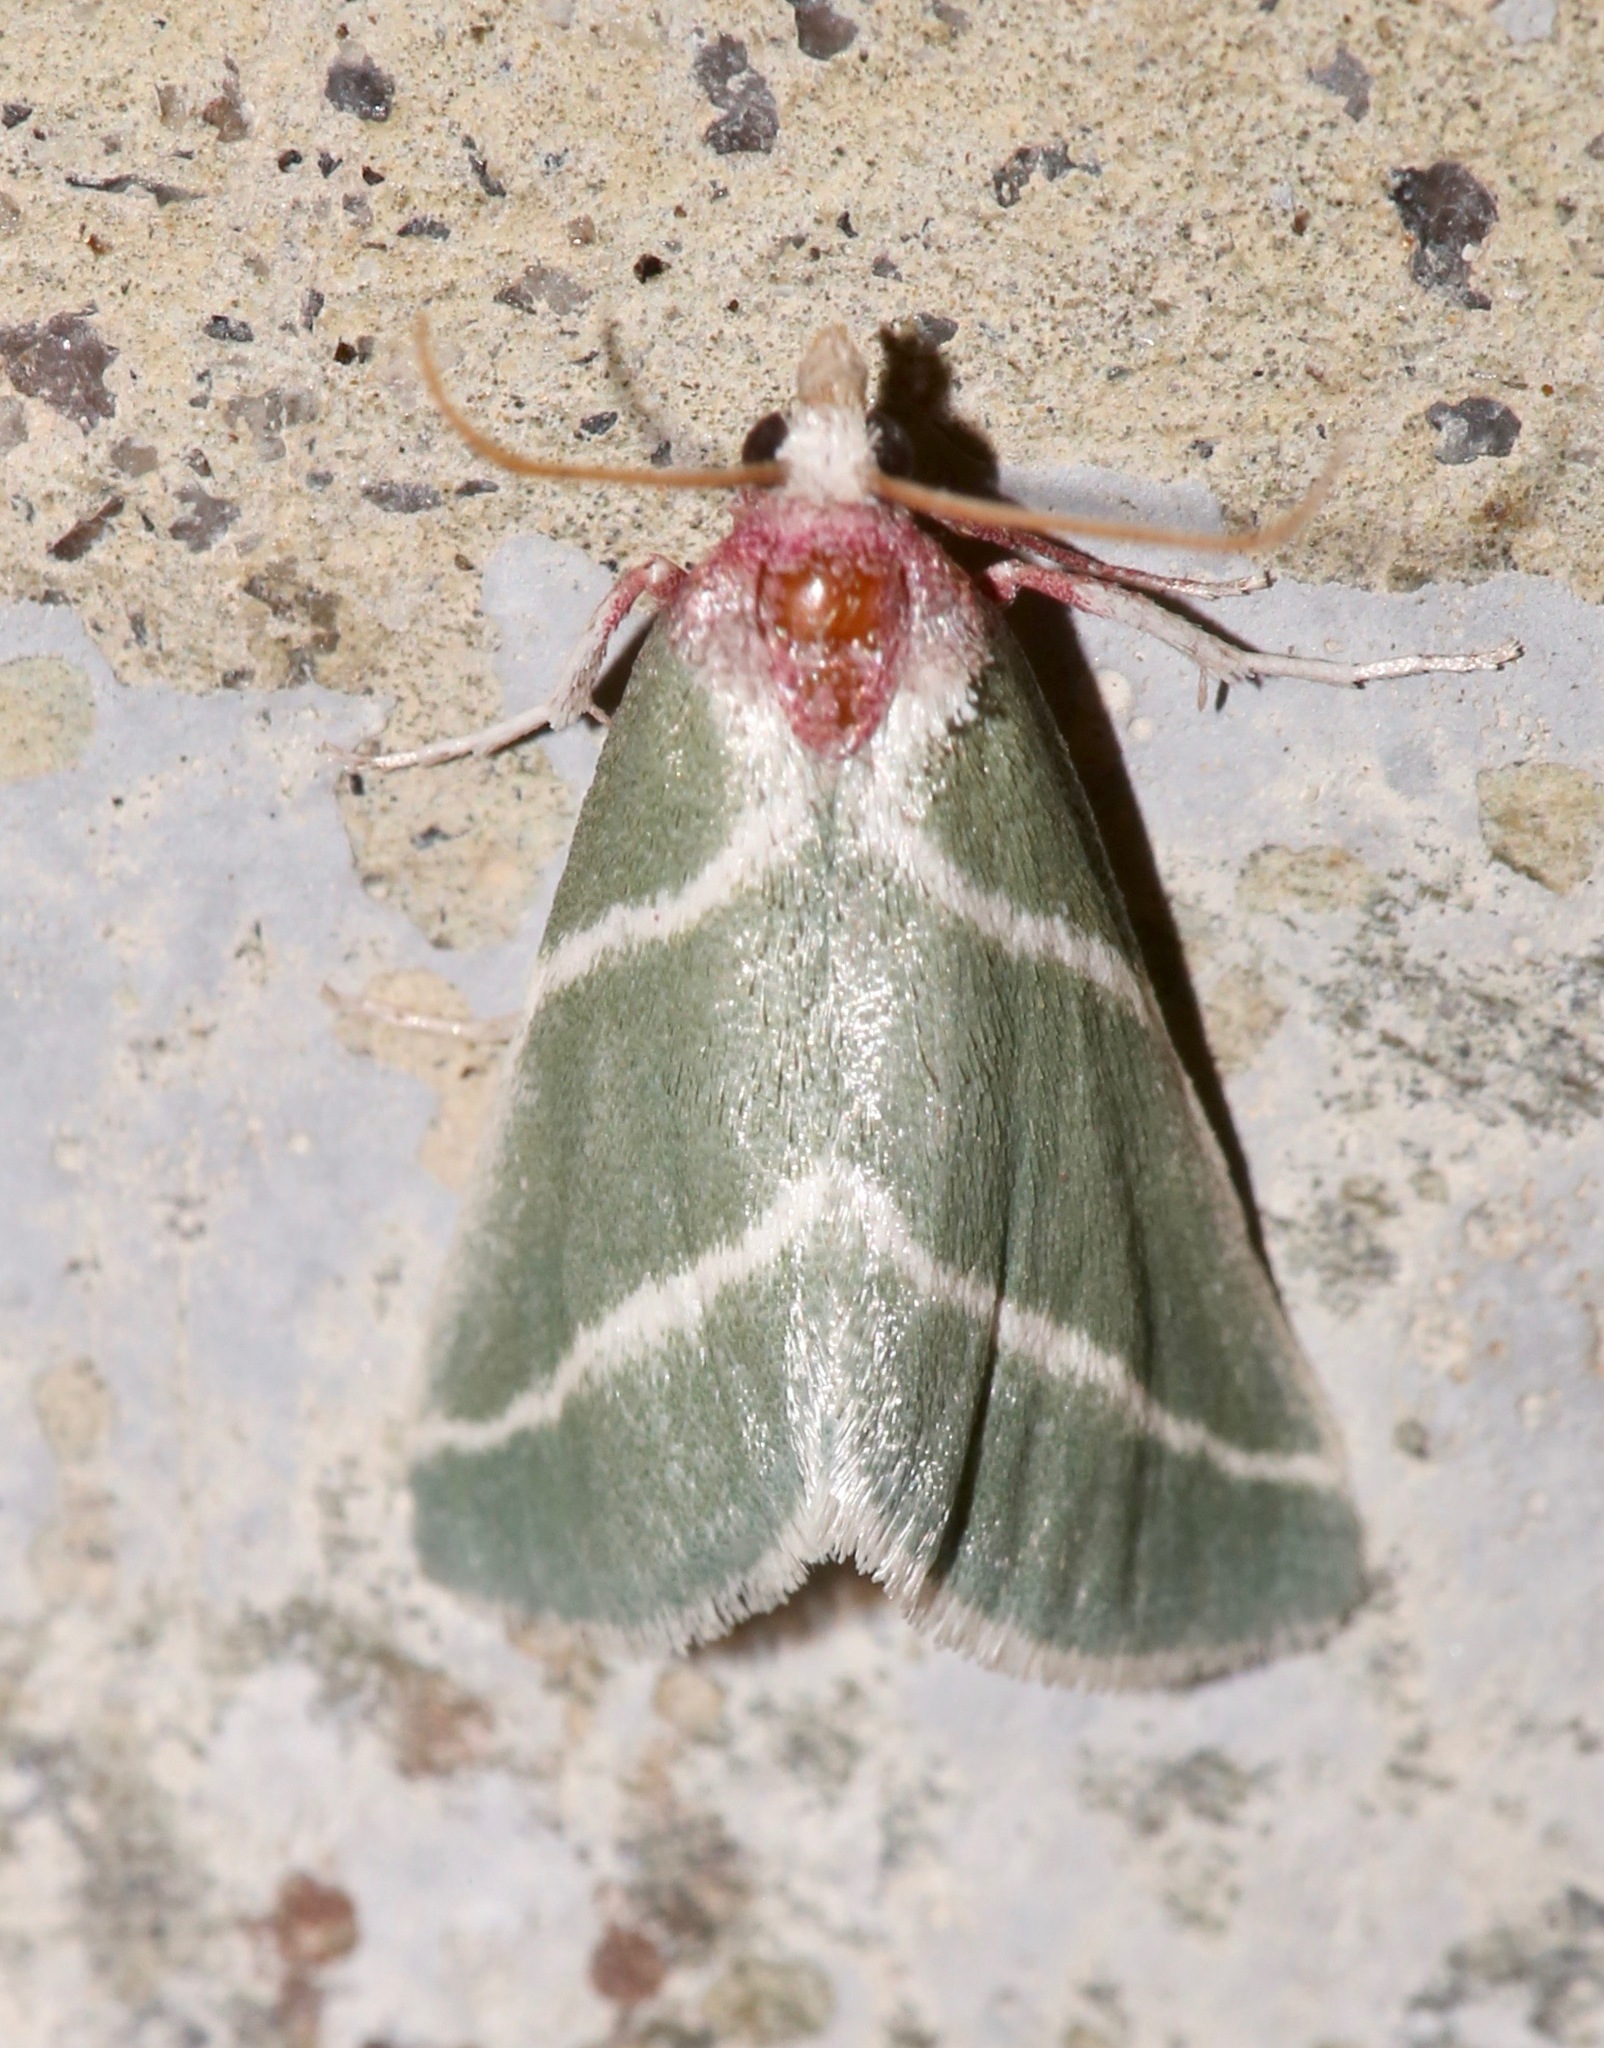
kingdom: Animalia
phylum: Arthropoda
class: Insecta
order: Lepidoptera
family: Pyralidae
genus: Anemosella
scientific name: Anemosella
